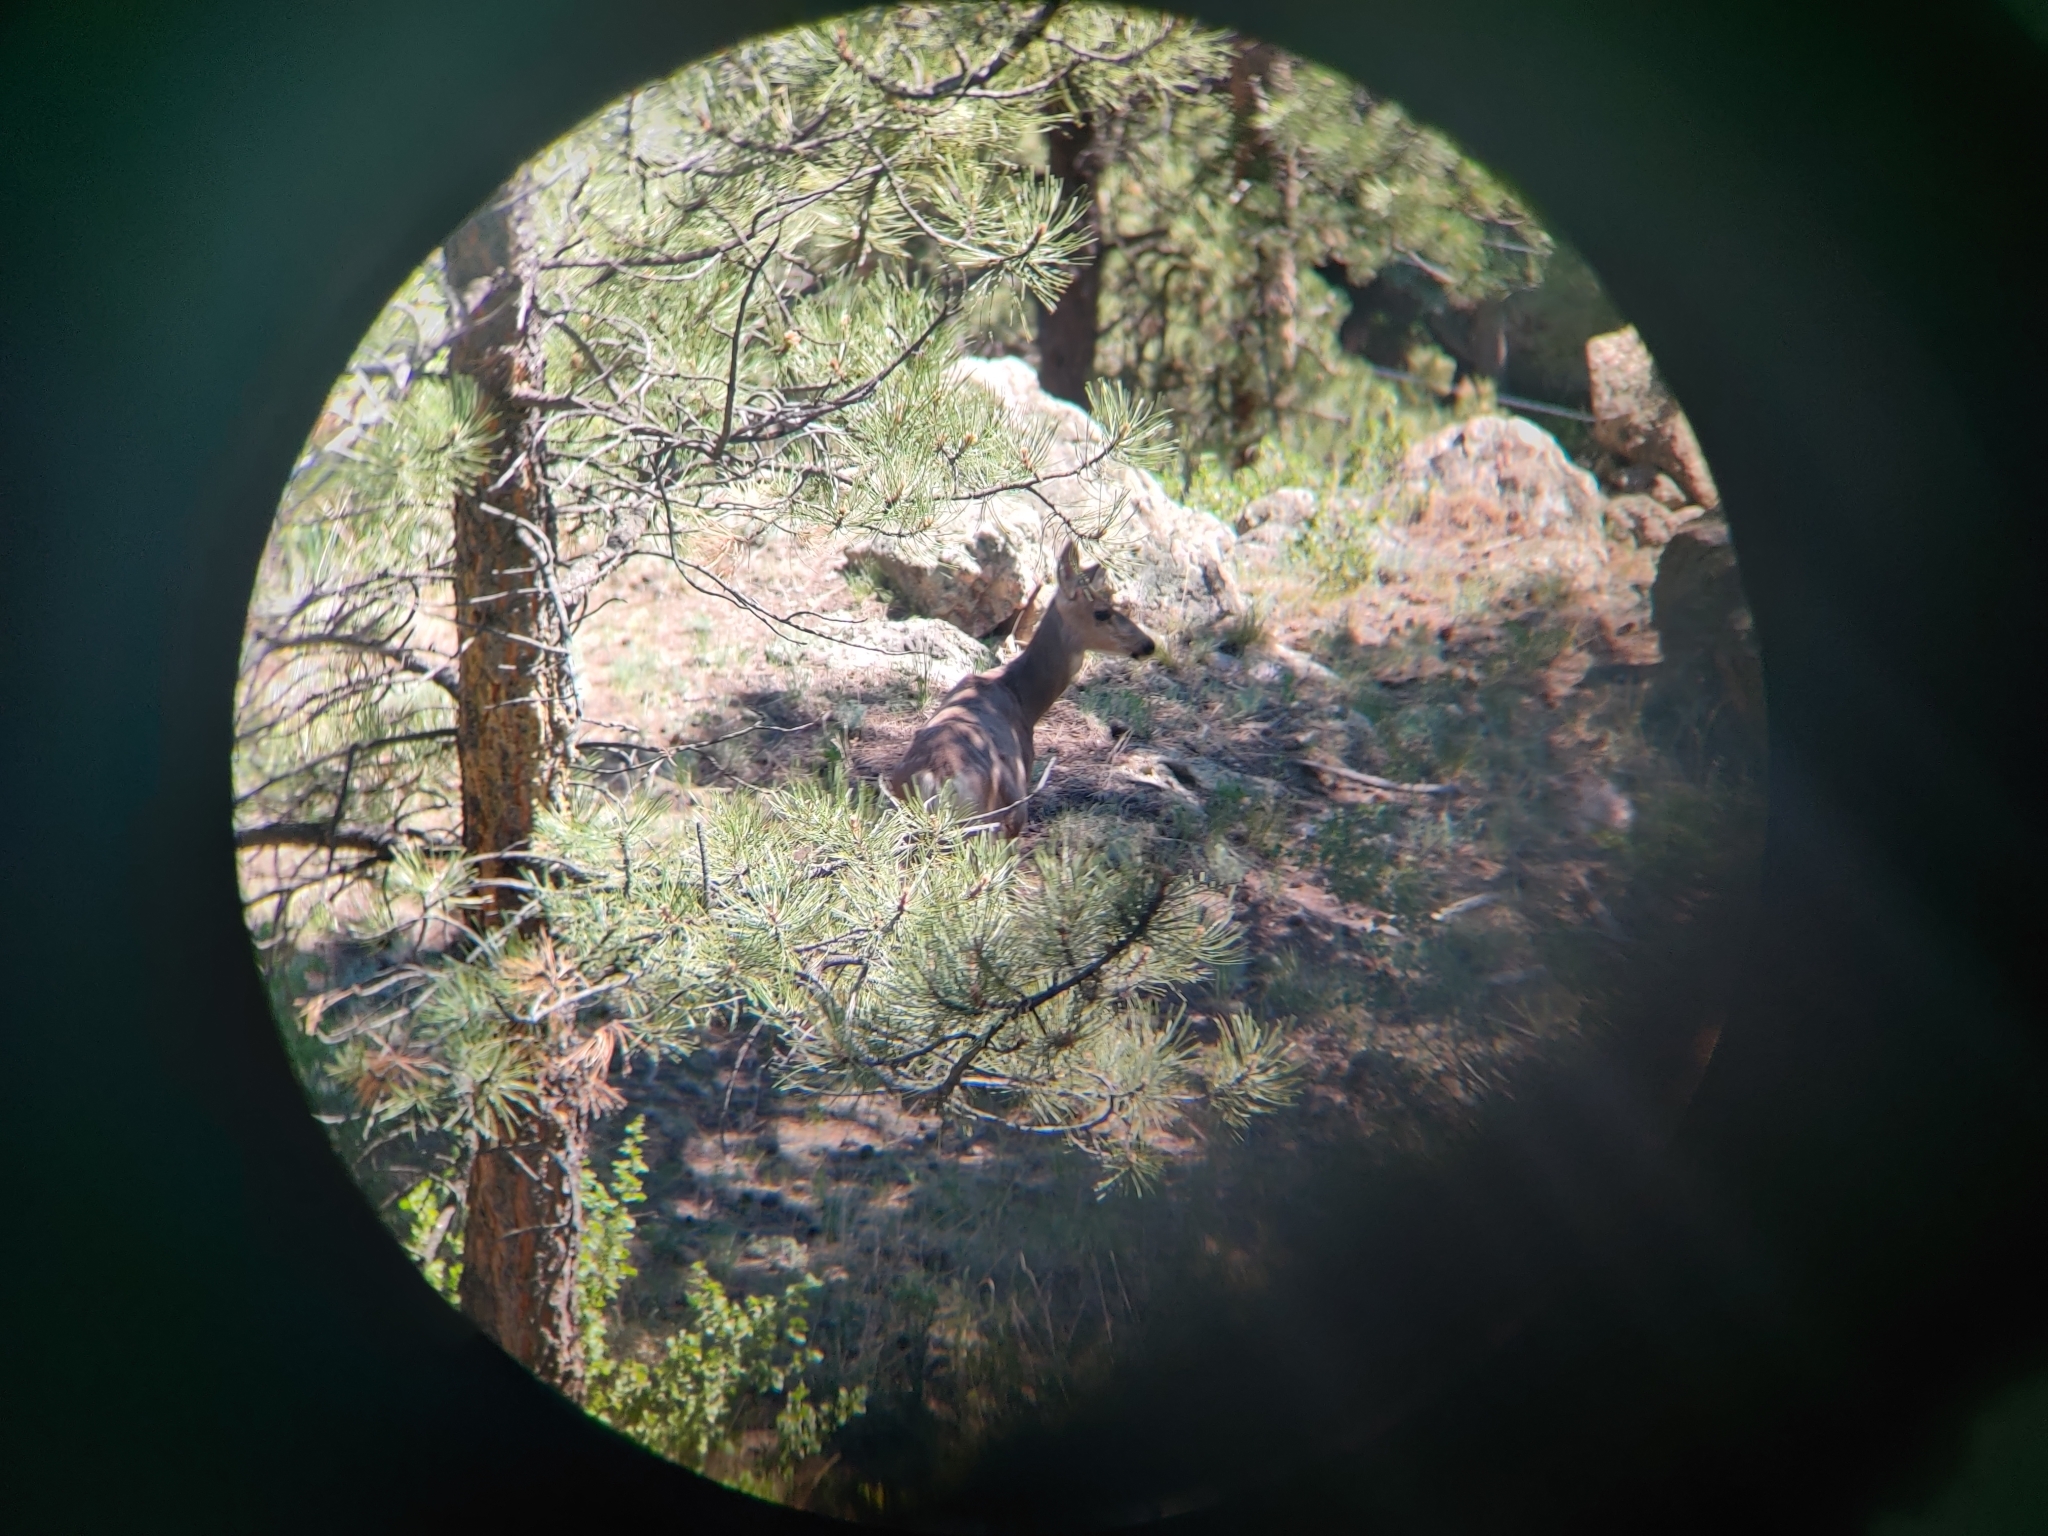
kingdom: Animalia
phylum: Chordata
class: Mammalia
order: Artiodactyla
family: Cervidae
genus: Odocoileus
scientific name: Odocoileus hemionus
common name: Mule deer
